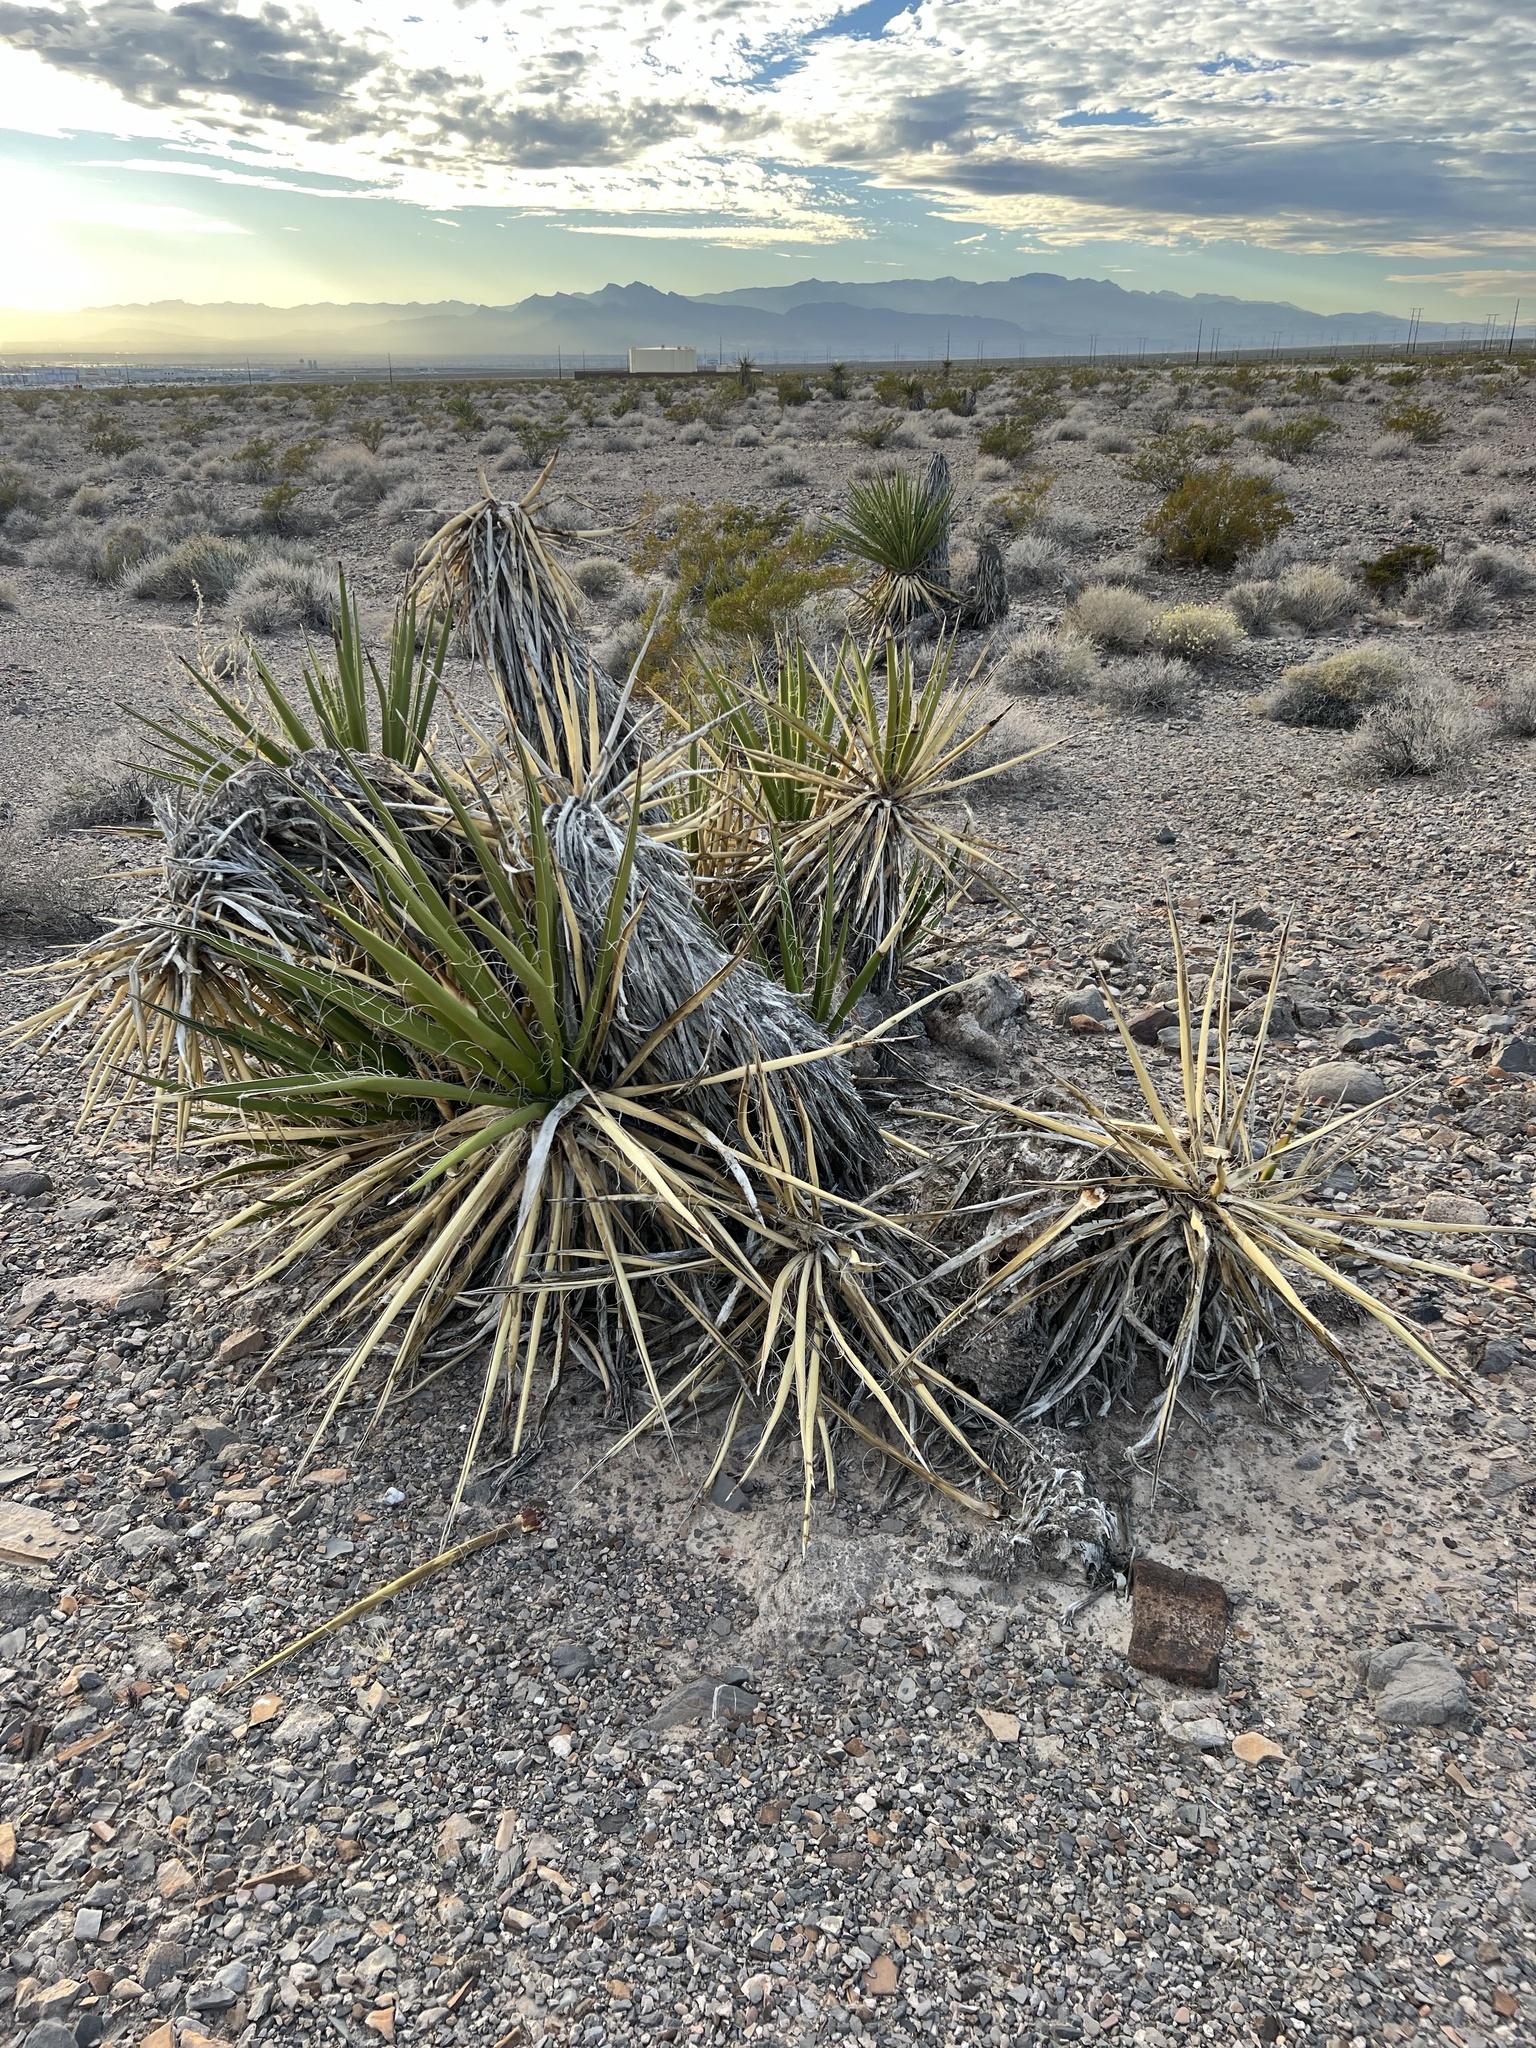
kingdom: Plantae
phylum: Tracheophyta
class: Liliopsida
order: Asparagales
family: Asparagaceae
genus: Yucca
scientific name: Yucca schidigera
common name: Mojave yucca
